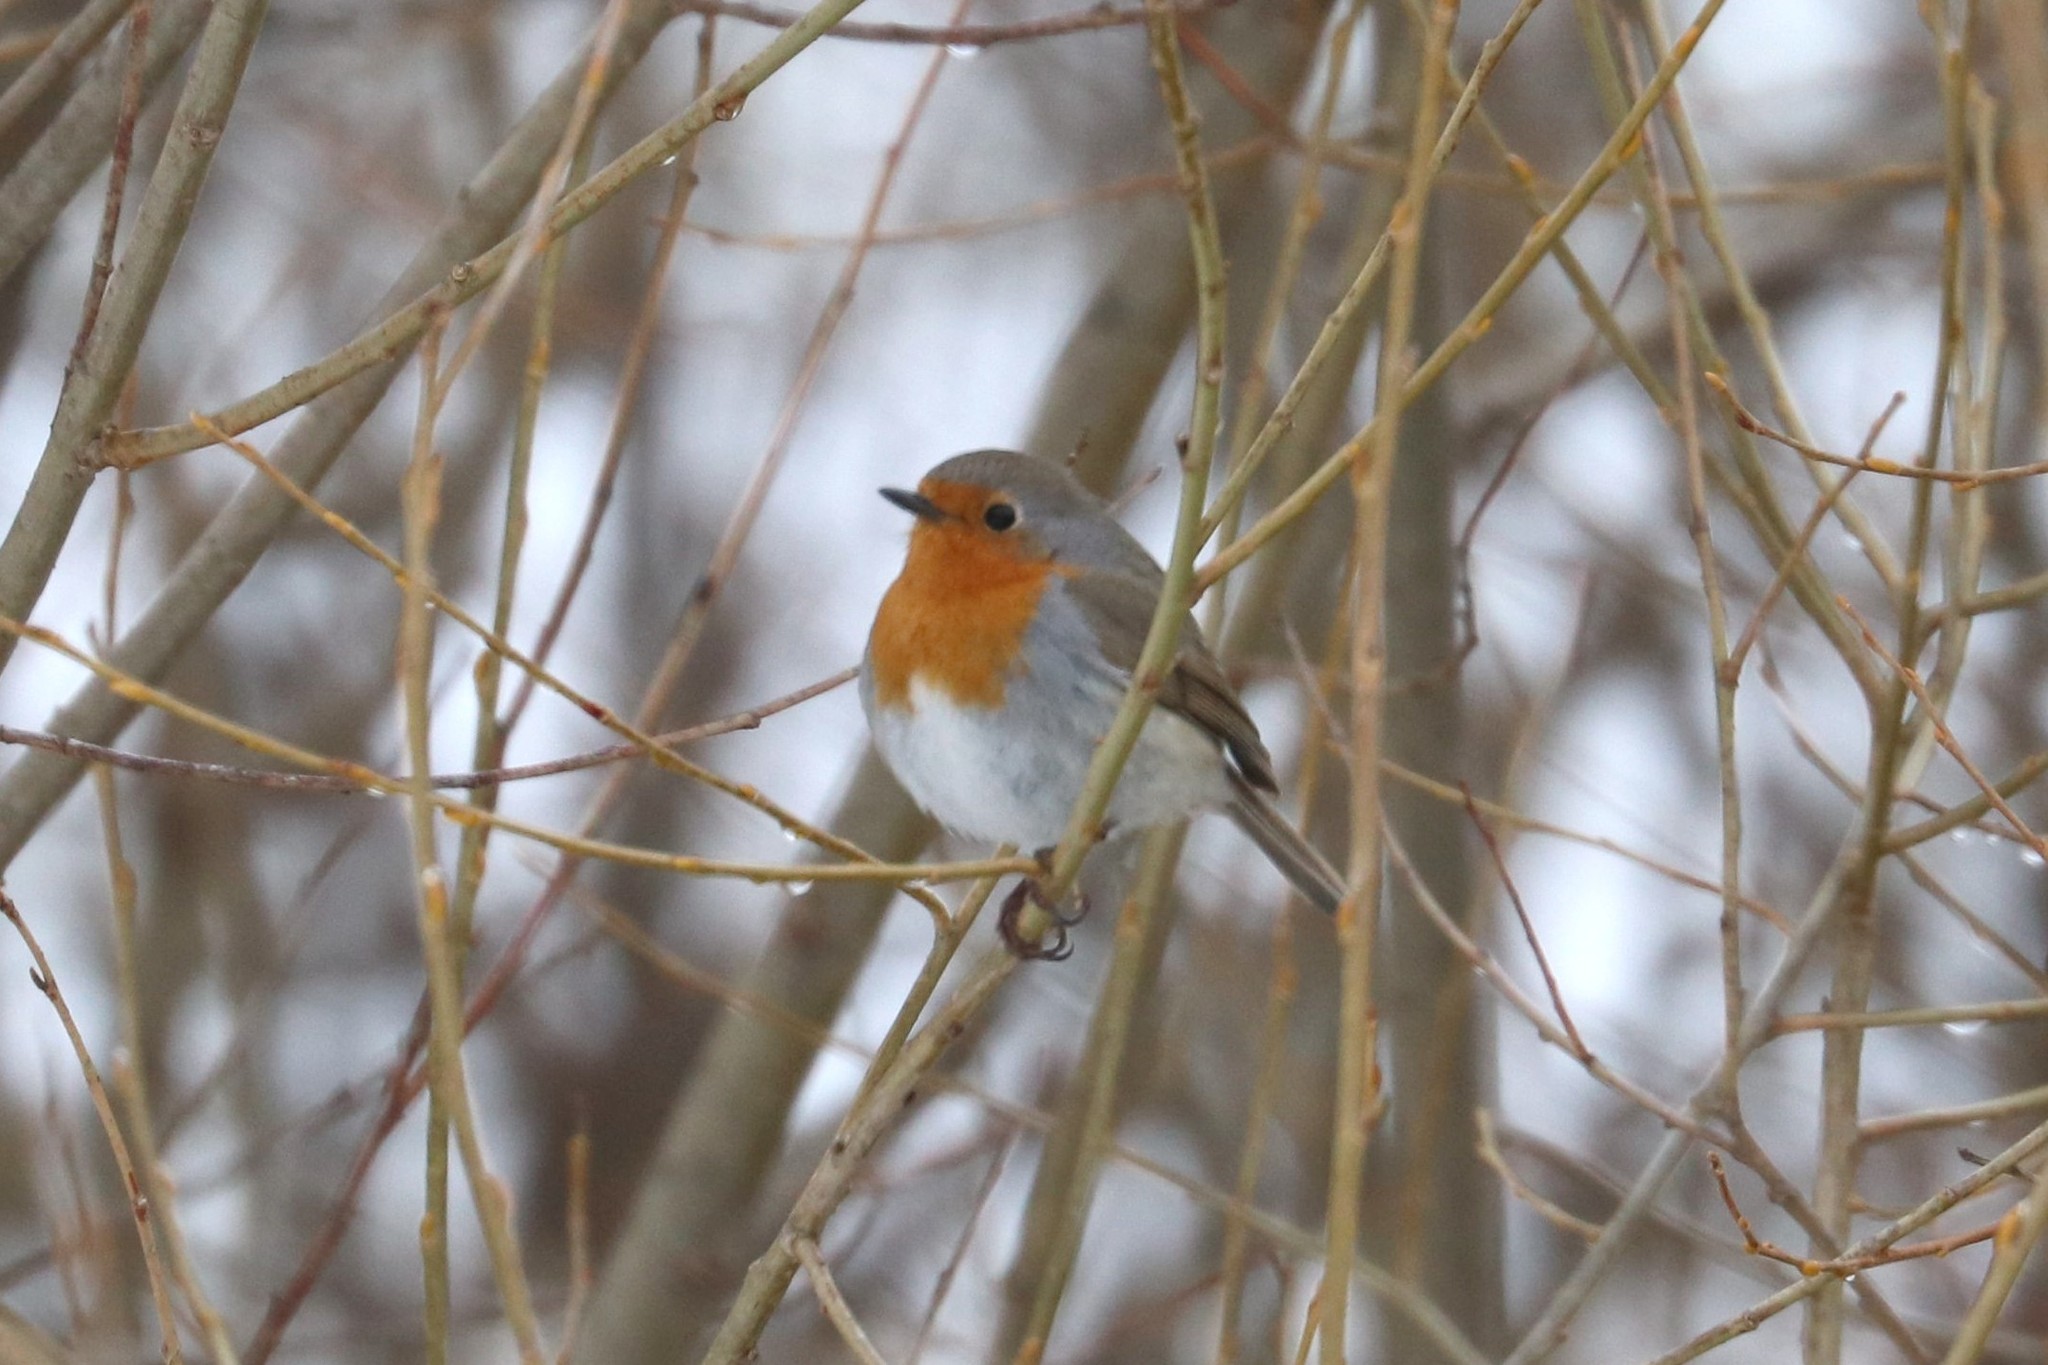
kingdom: Animalia
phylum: Chordata
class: Aves
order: Passeriformes
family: Muscicapidae
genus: Erithacus
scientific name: Erithacus rubecula
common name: European robin
